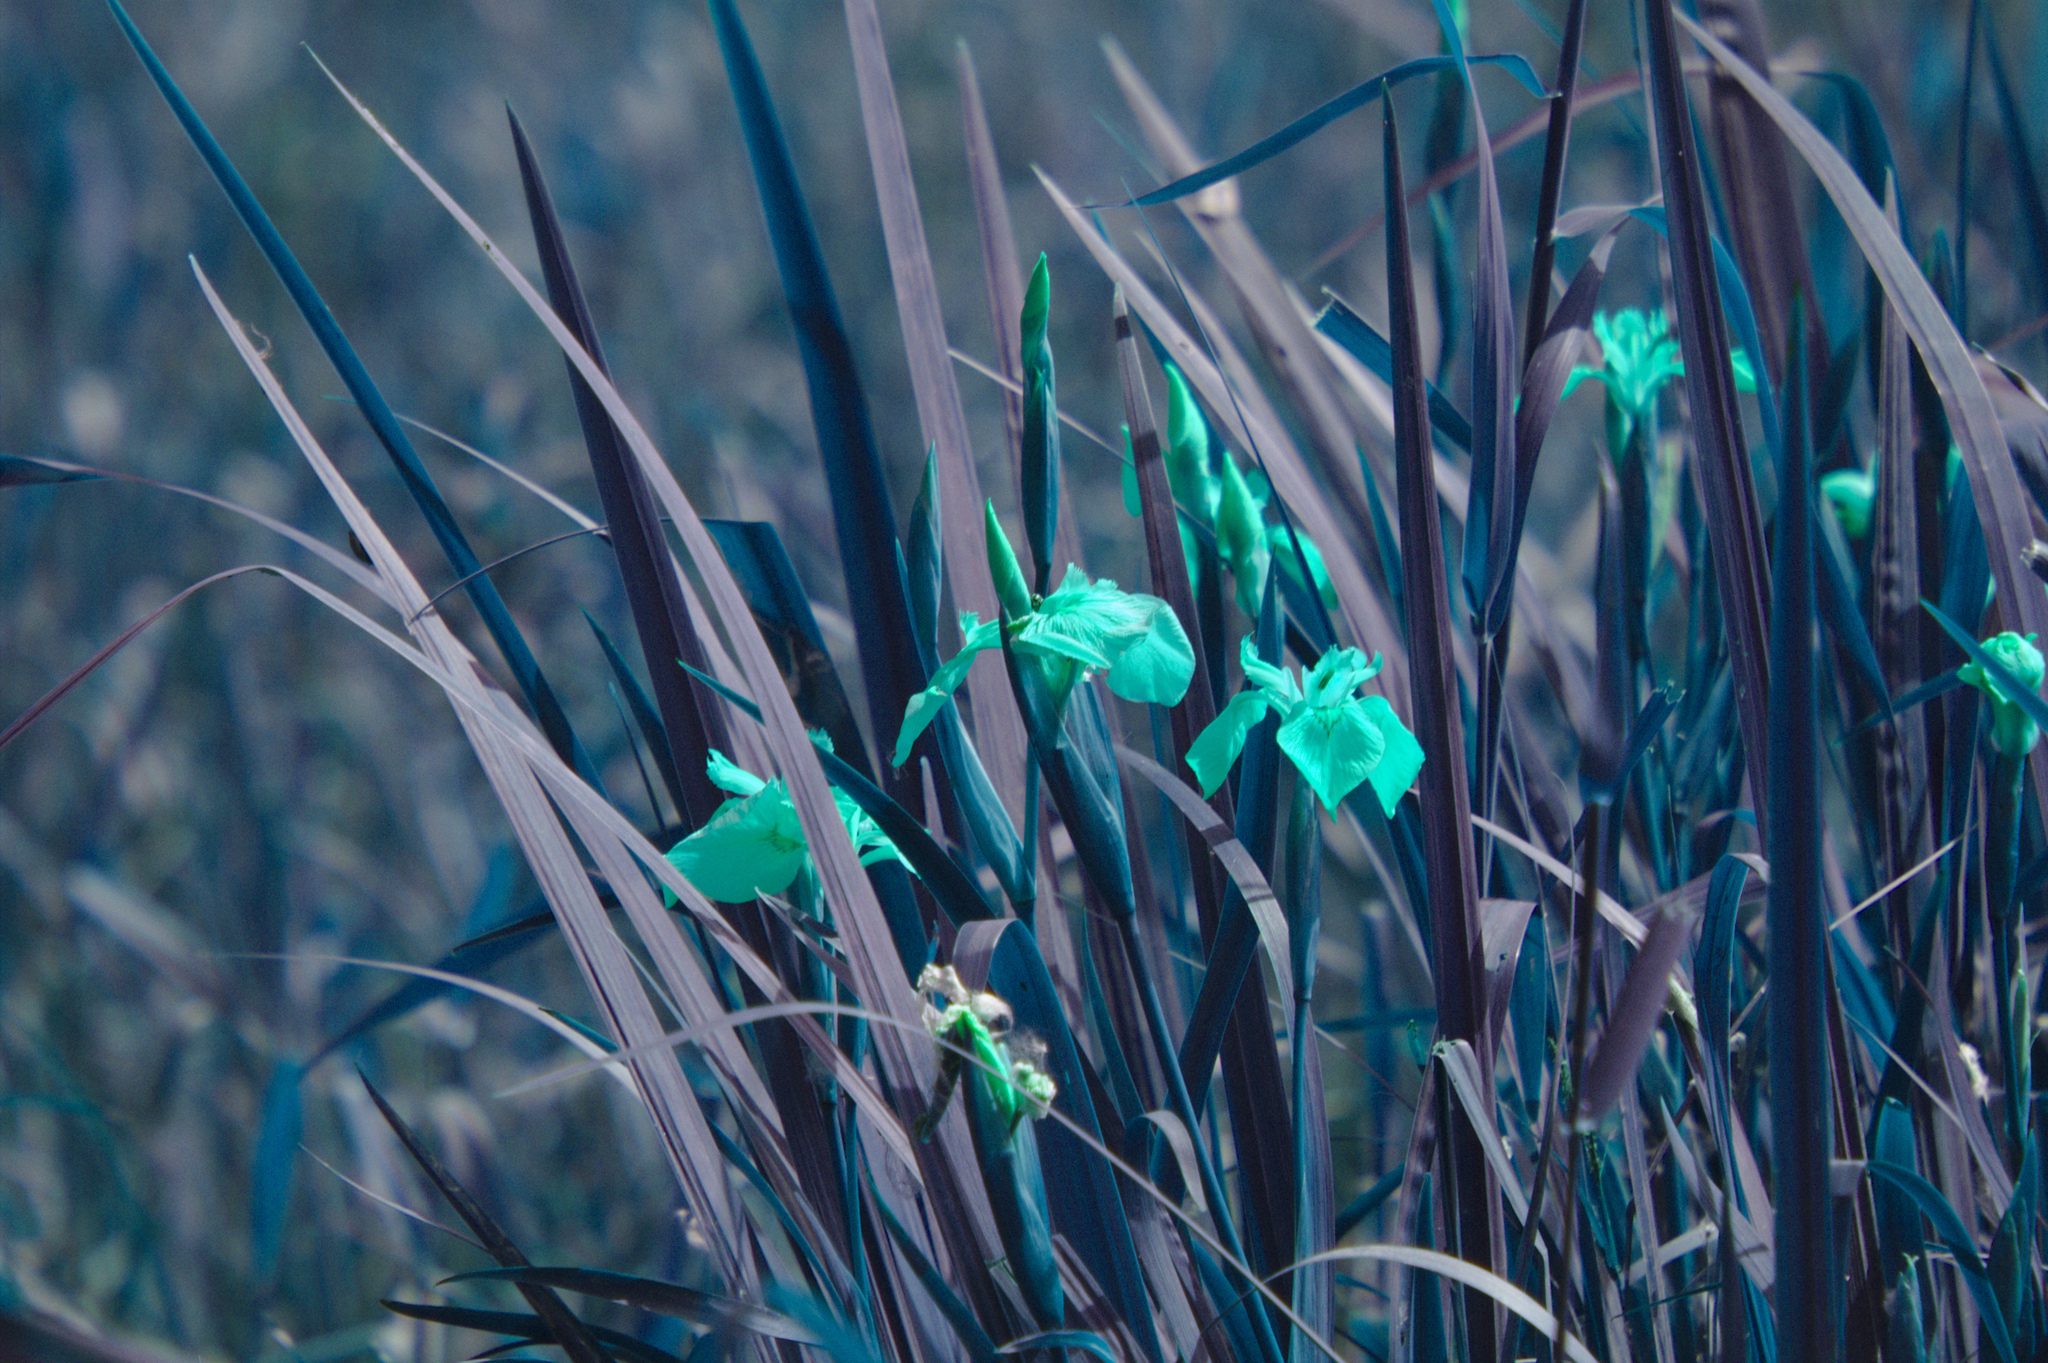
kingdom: Plantae
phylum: Tracheophyta
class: Liliopsida
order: Asparagales
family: Iridaceae
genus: Iris
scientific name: Iris pseudacorus
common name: Yellow flag
